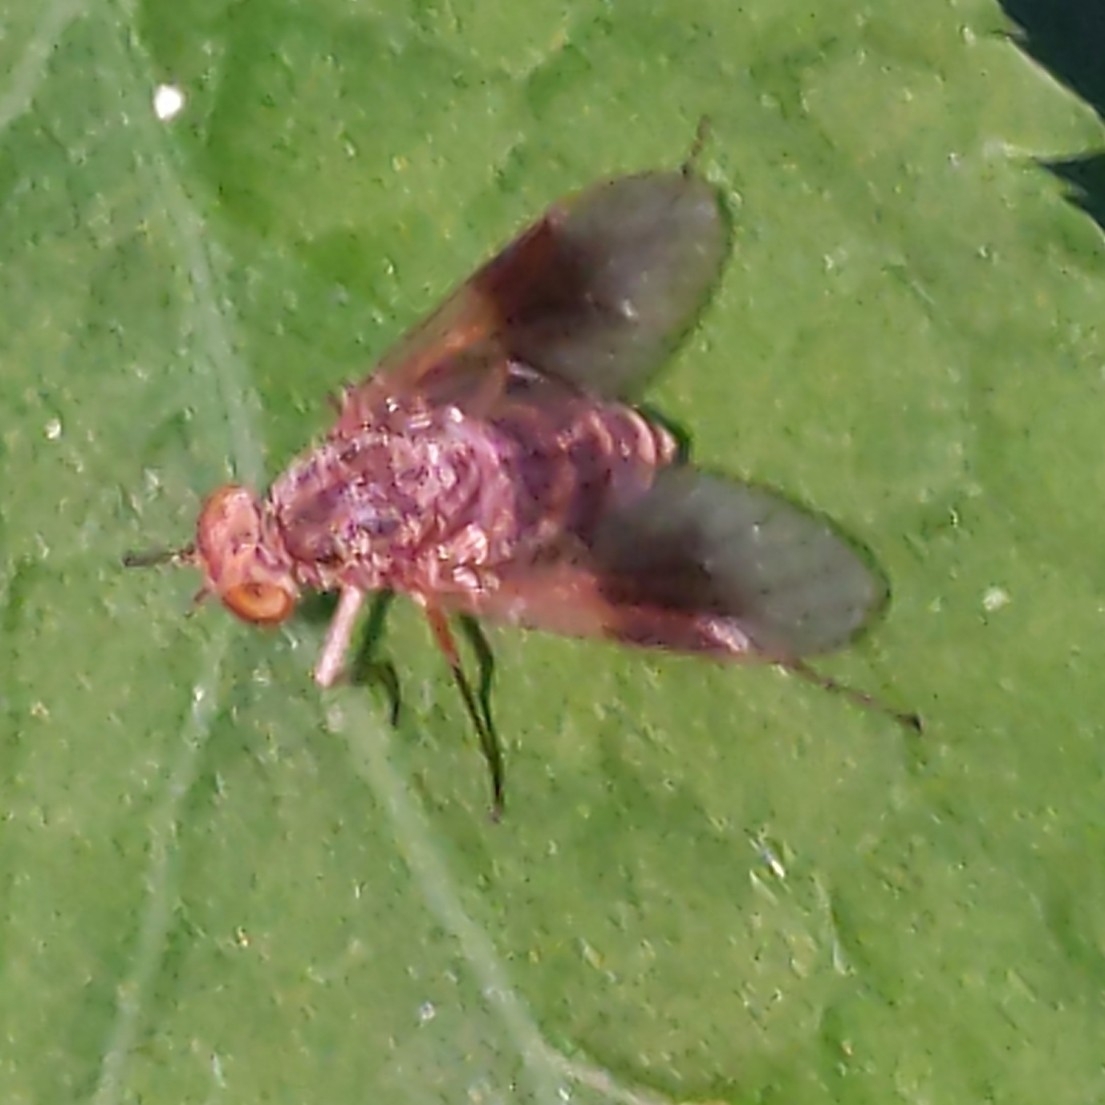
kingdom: Animalia
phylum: Arthropoda
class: Insecta
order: Diptera
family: Rhagionidae
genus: Chrysopilus
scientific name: Chrysopilus quadratus
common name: Quadrate snipe fly
